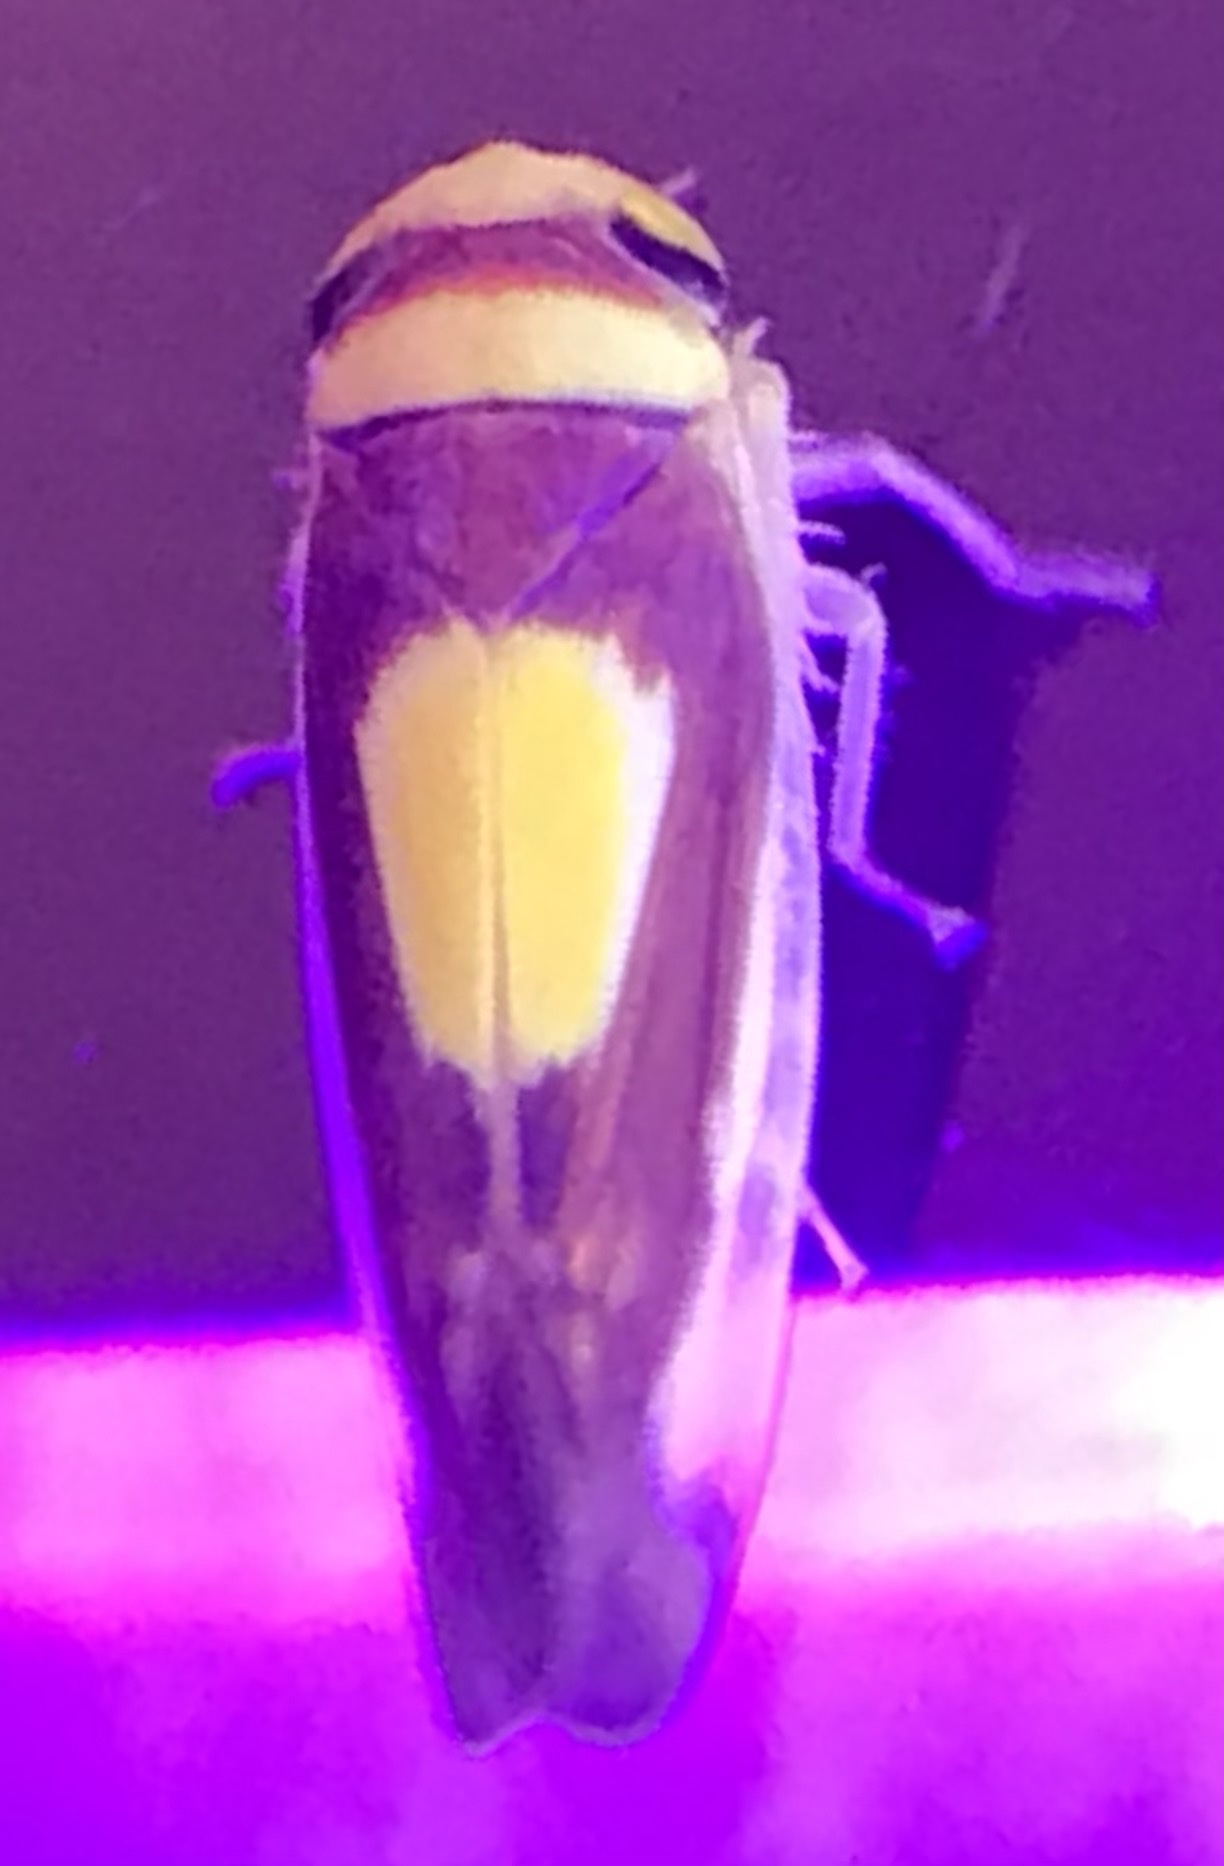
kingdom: Animalia
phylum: Arthropoda
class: Insecta
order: Hemiptera
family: Cicadellidae
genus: Colladonus
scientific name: Colladonus clitellarius
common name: The saddleback leafhopper
